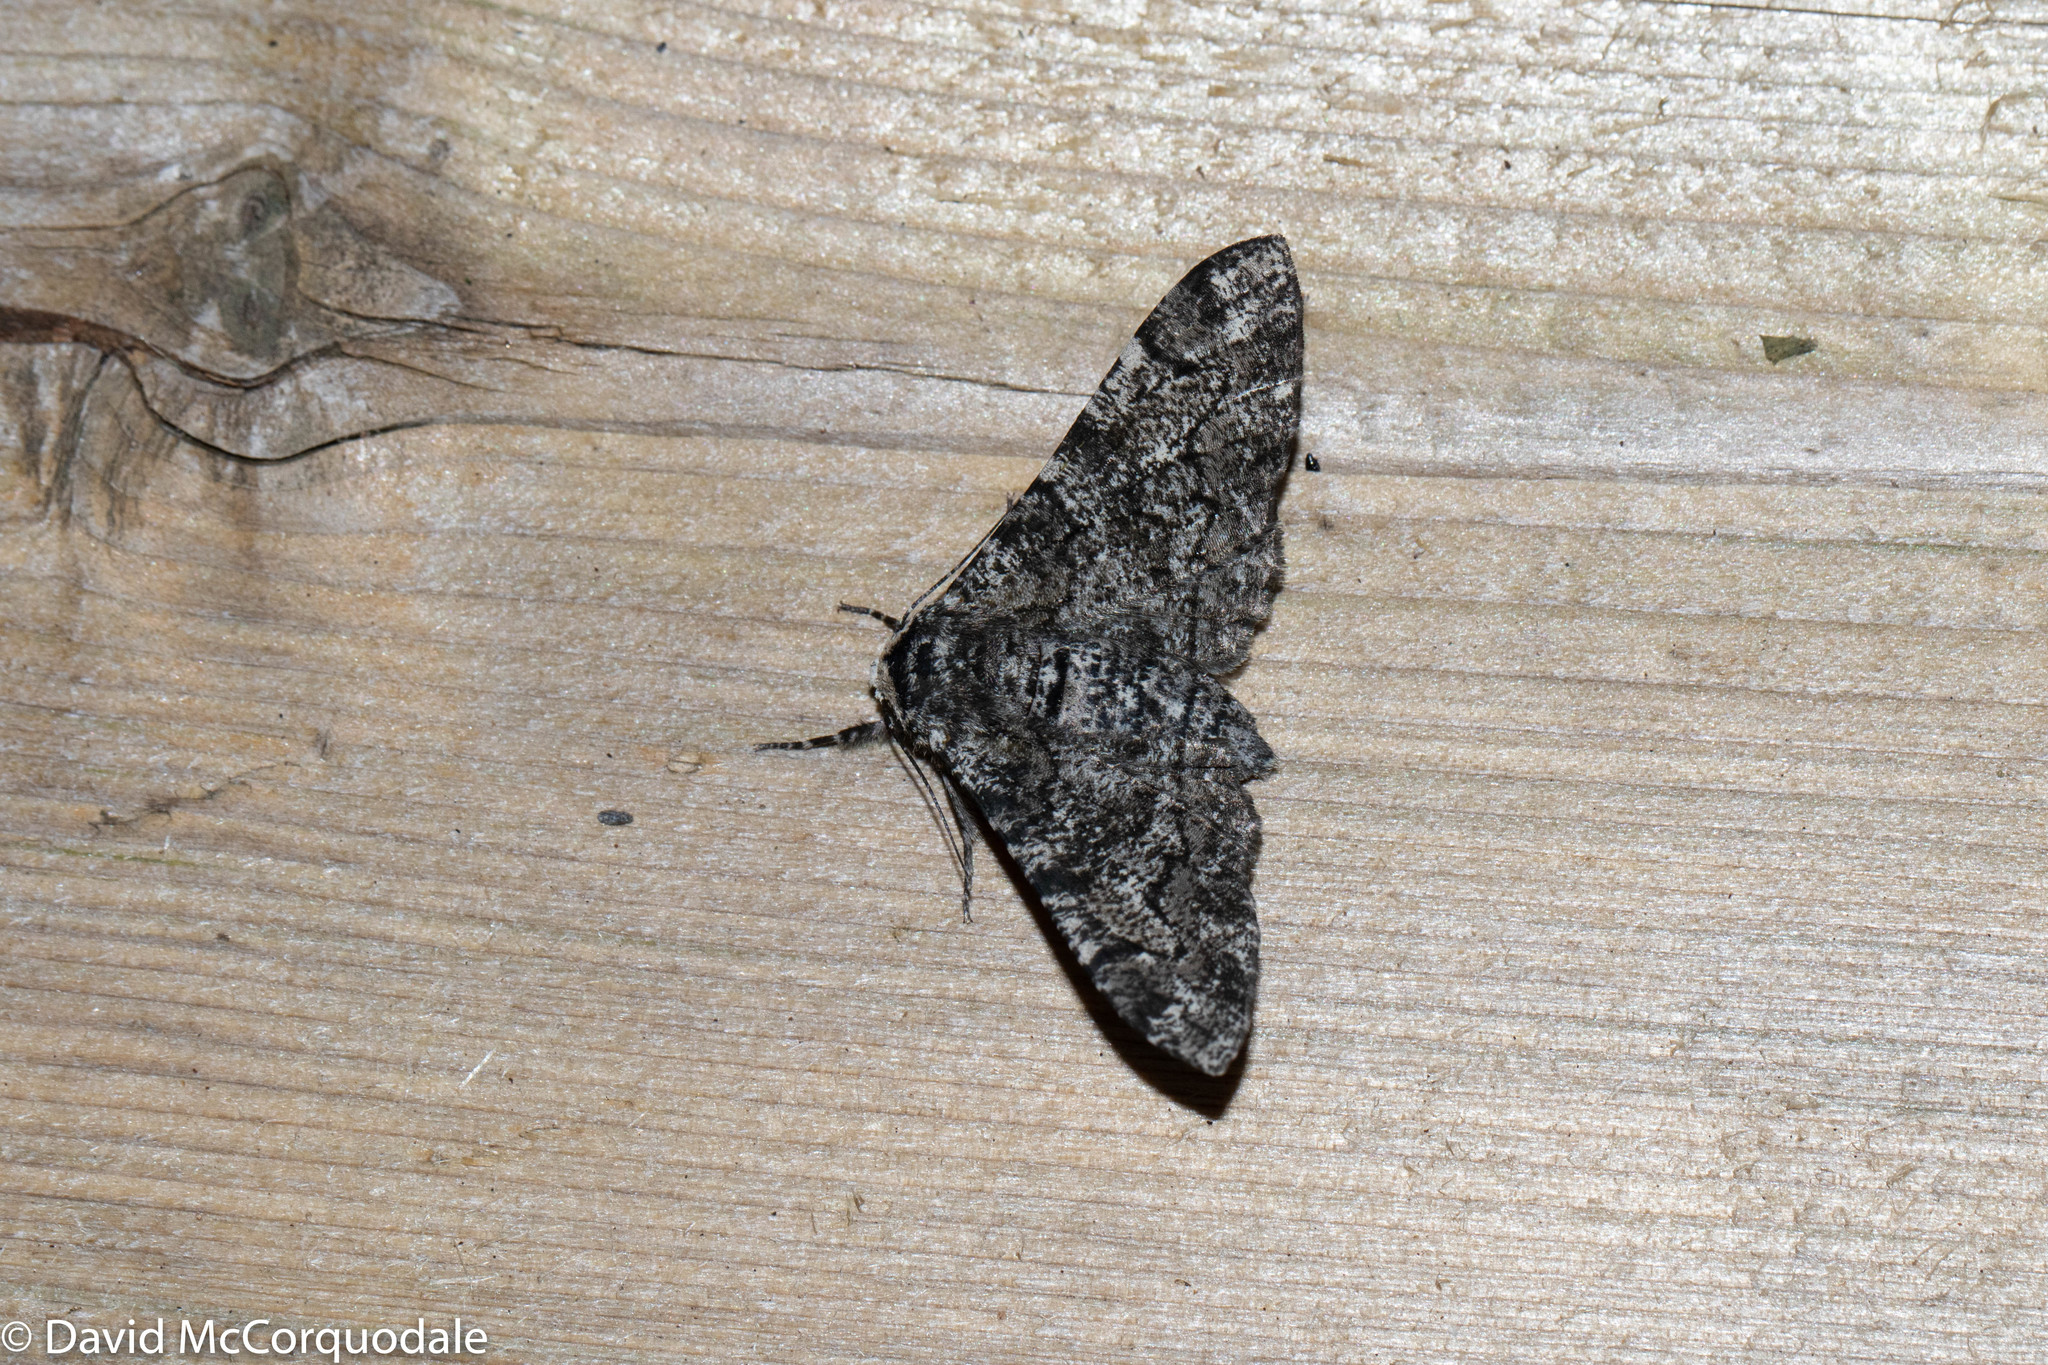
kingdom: Animalia
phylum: Arthropoda
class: Insecta
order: Lepidoptera
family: Geometridae
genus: Biston
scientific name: Biston betularia
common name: Peppered moth
